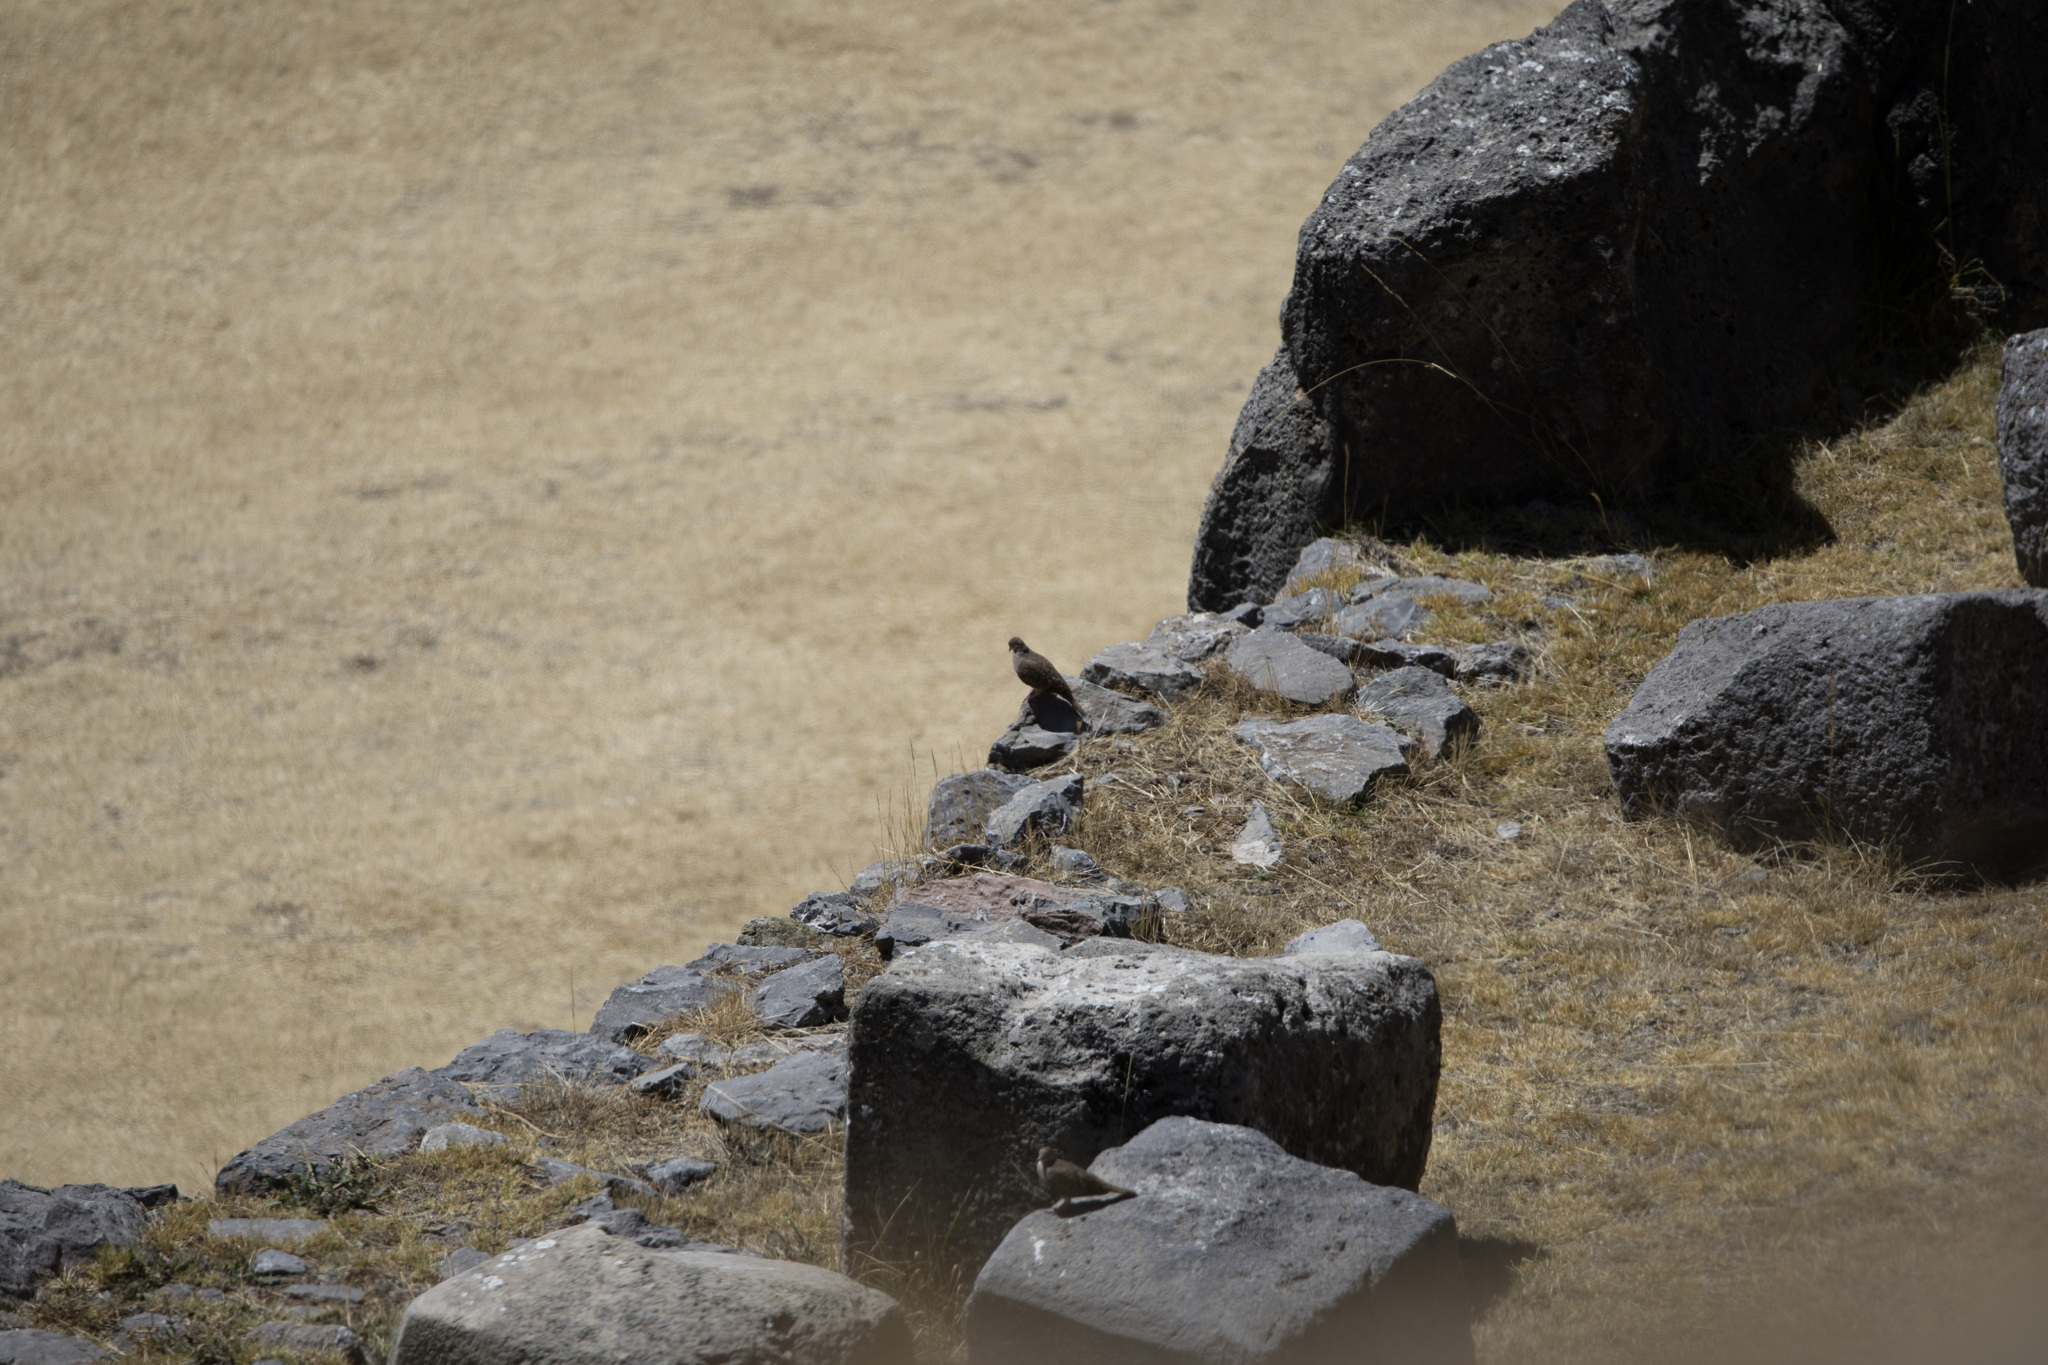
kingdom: Animalia
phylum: Chordata
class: Aves
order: Columbiformes
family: Columbidae
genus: Metriopelia
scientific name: Metriopelia ceciliae
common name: Bare-faced ground dove
